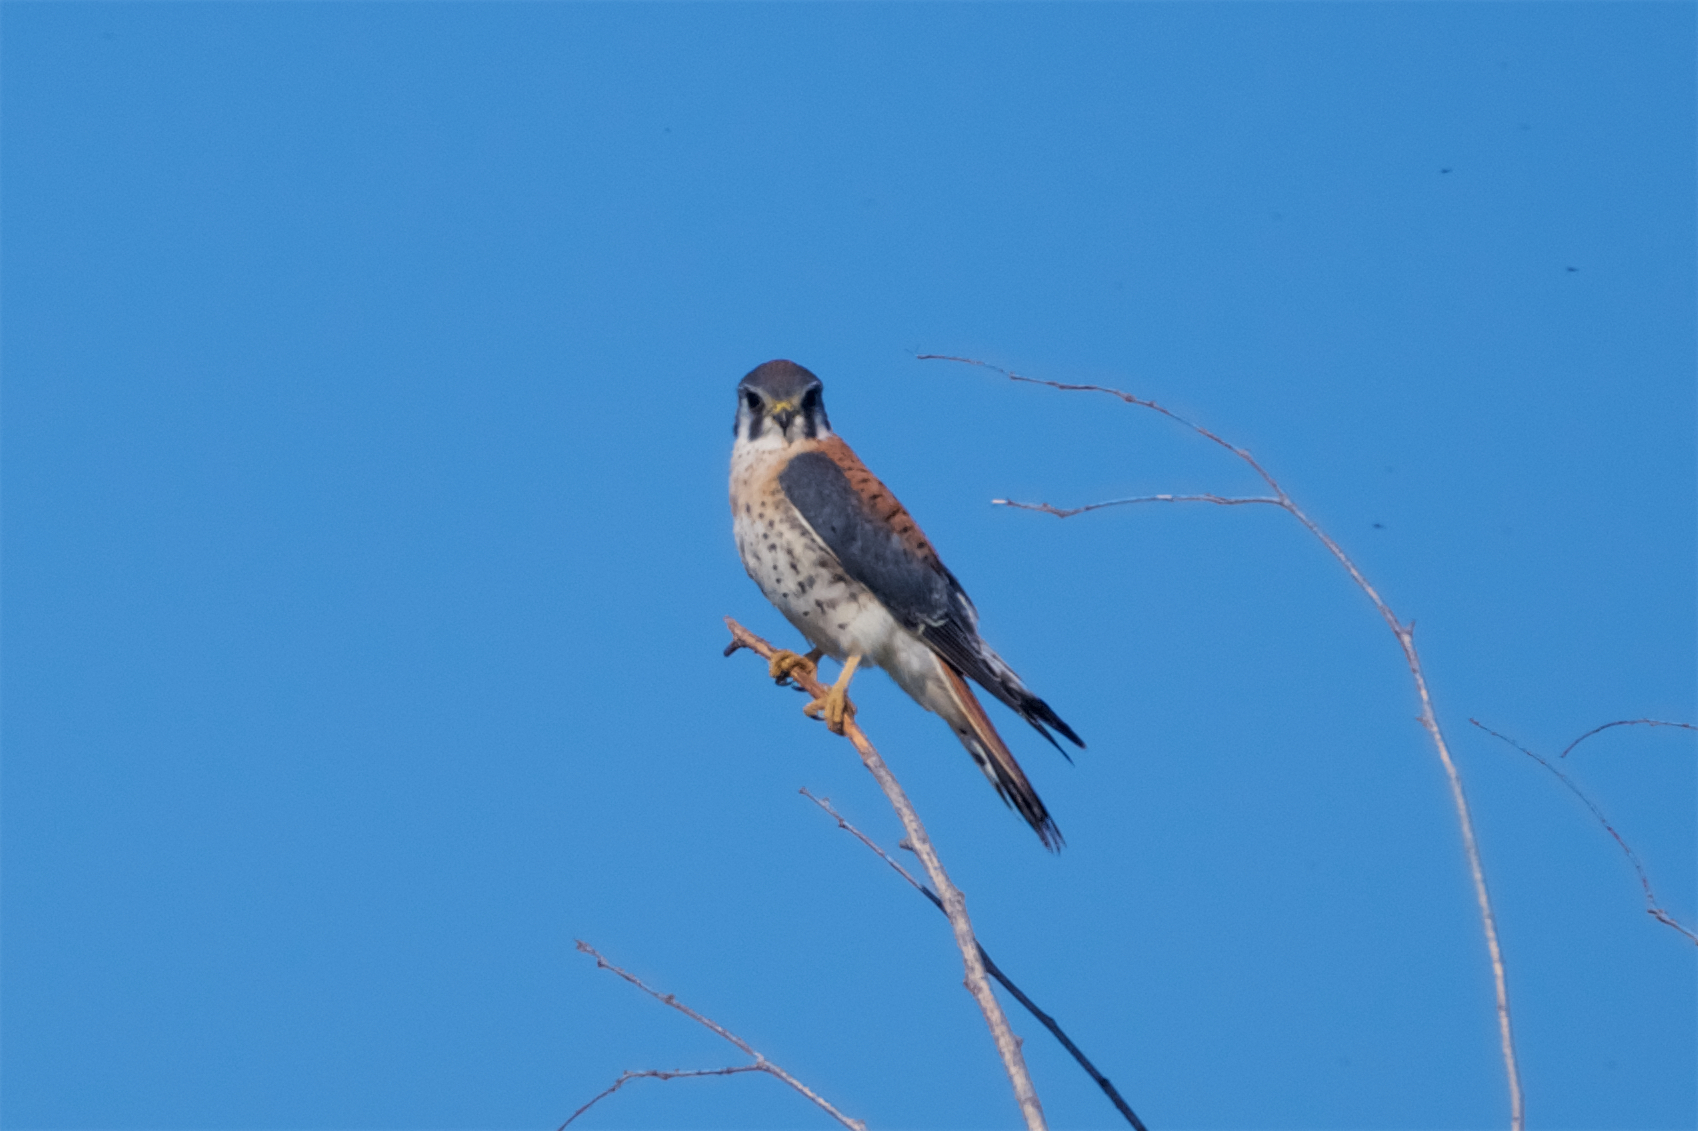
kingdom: Animalia
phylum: Chordata
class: Aves
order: Falconiformes
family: Falconidae
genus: Falco
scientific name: Falco sparverius
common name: American kestrel
